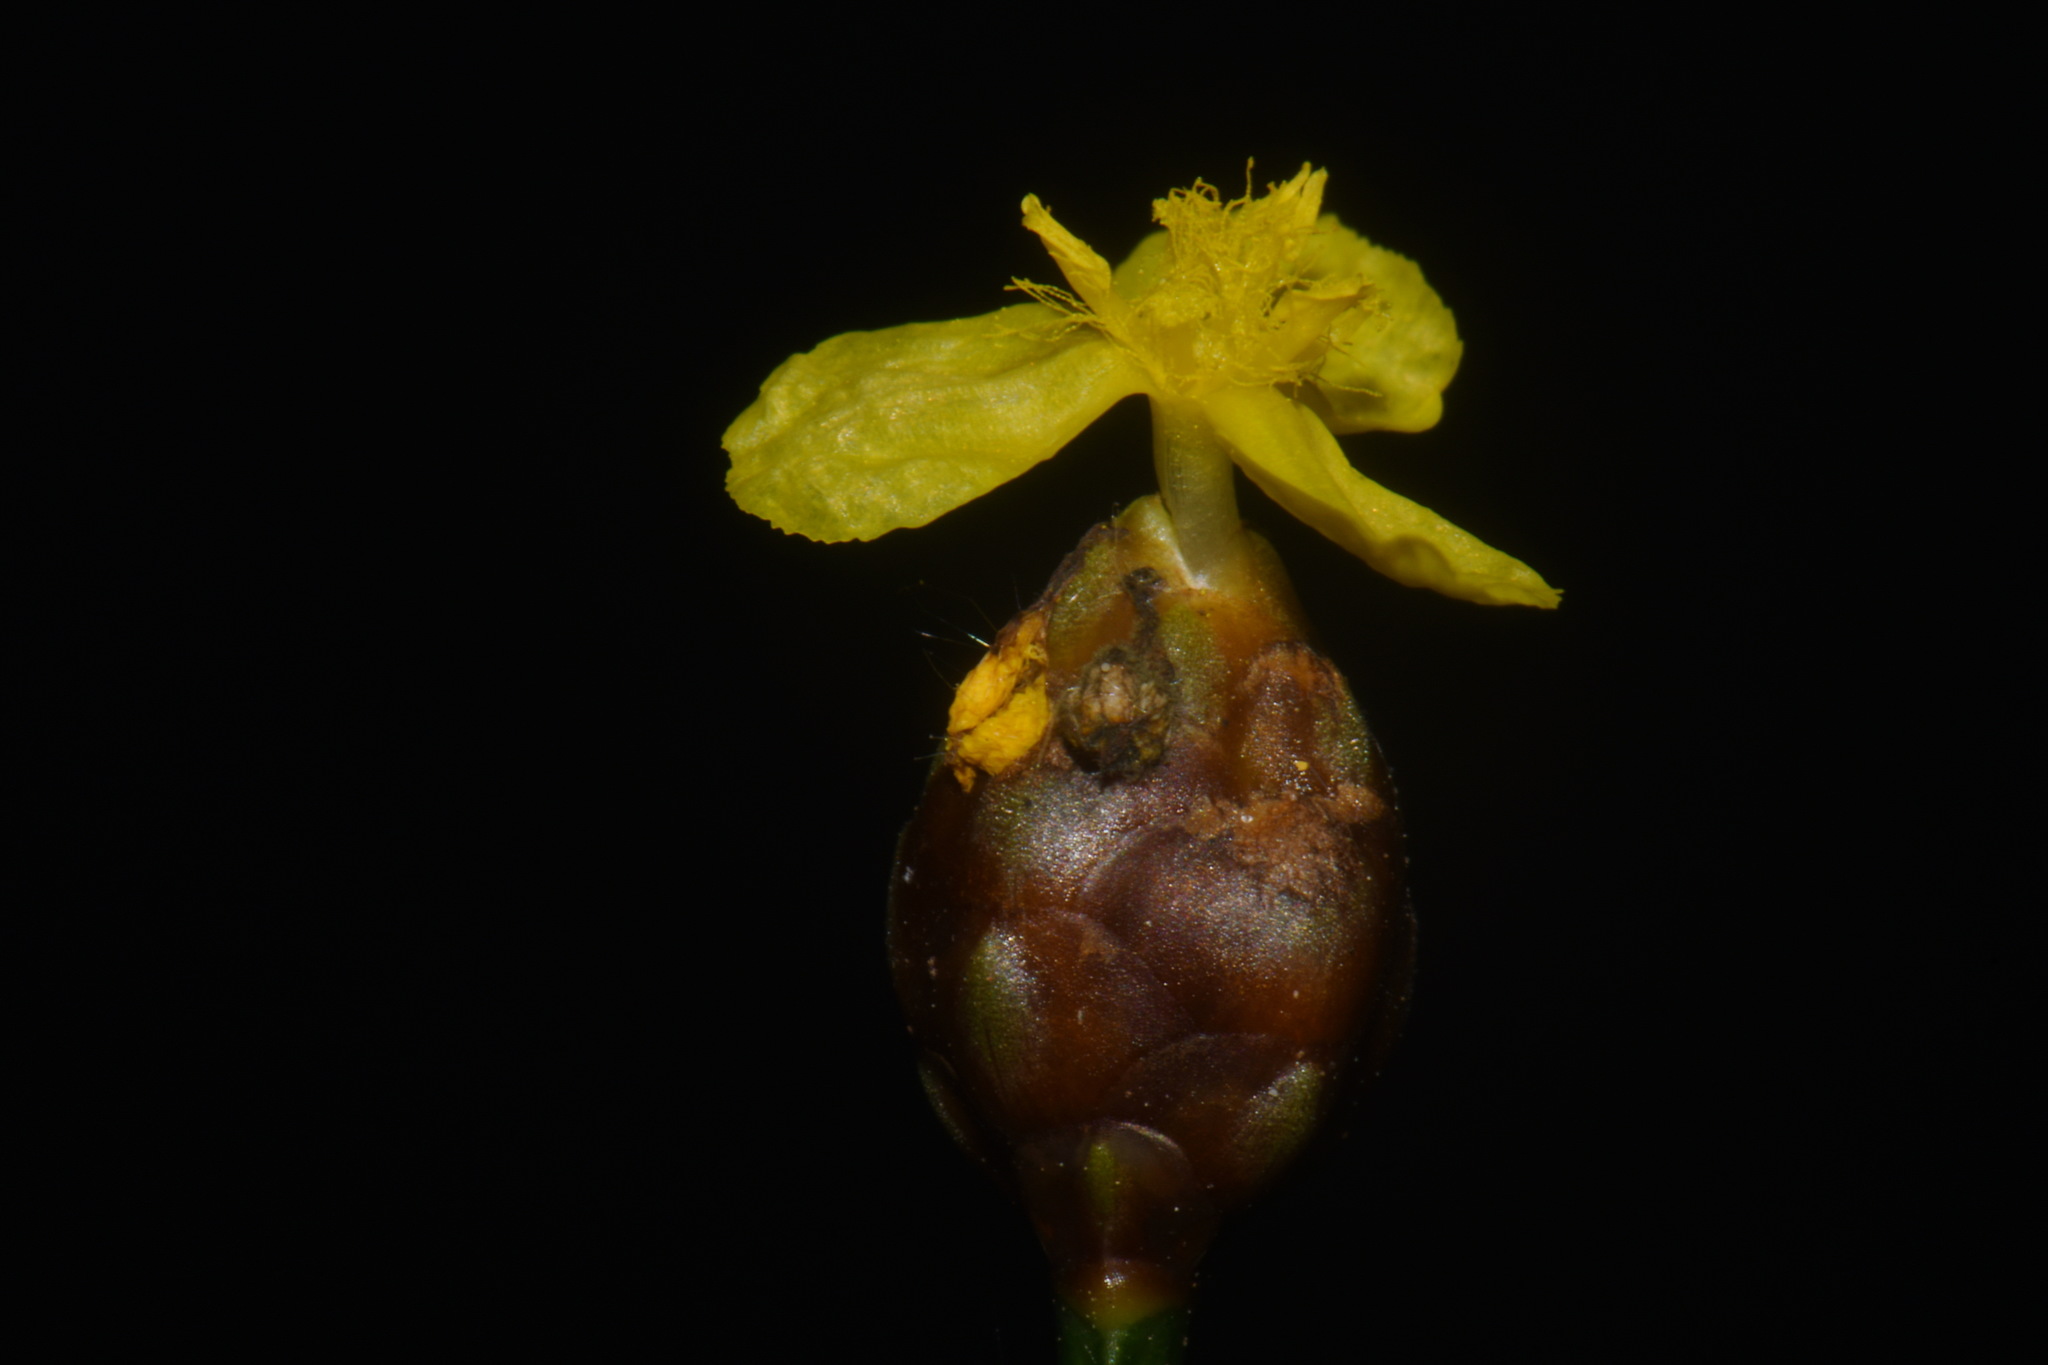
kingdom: Plantae
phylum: Tracheophyta
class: Liliopsida
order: Poales
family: Xyridaceae
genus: Xyris
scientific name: Xyris tennesseensis
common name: Tennessee yellow-eyed-grass
